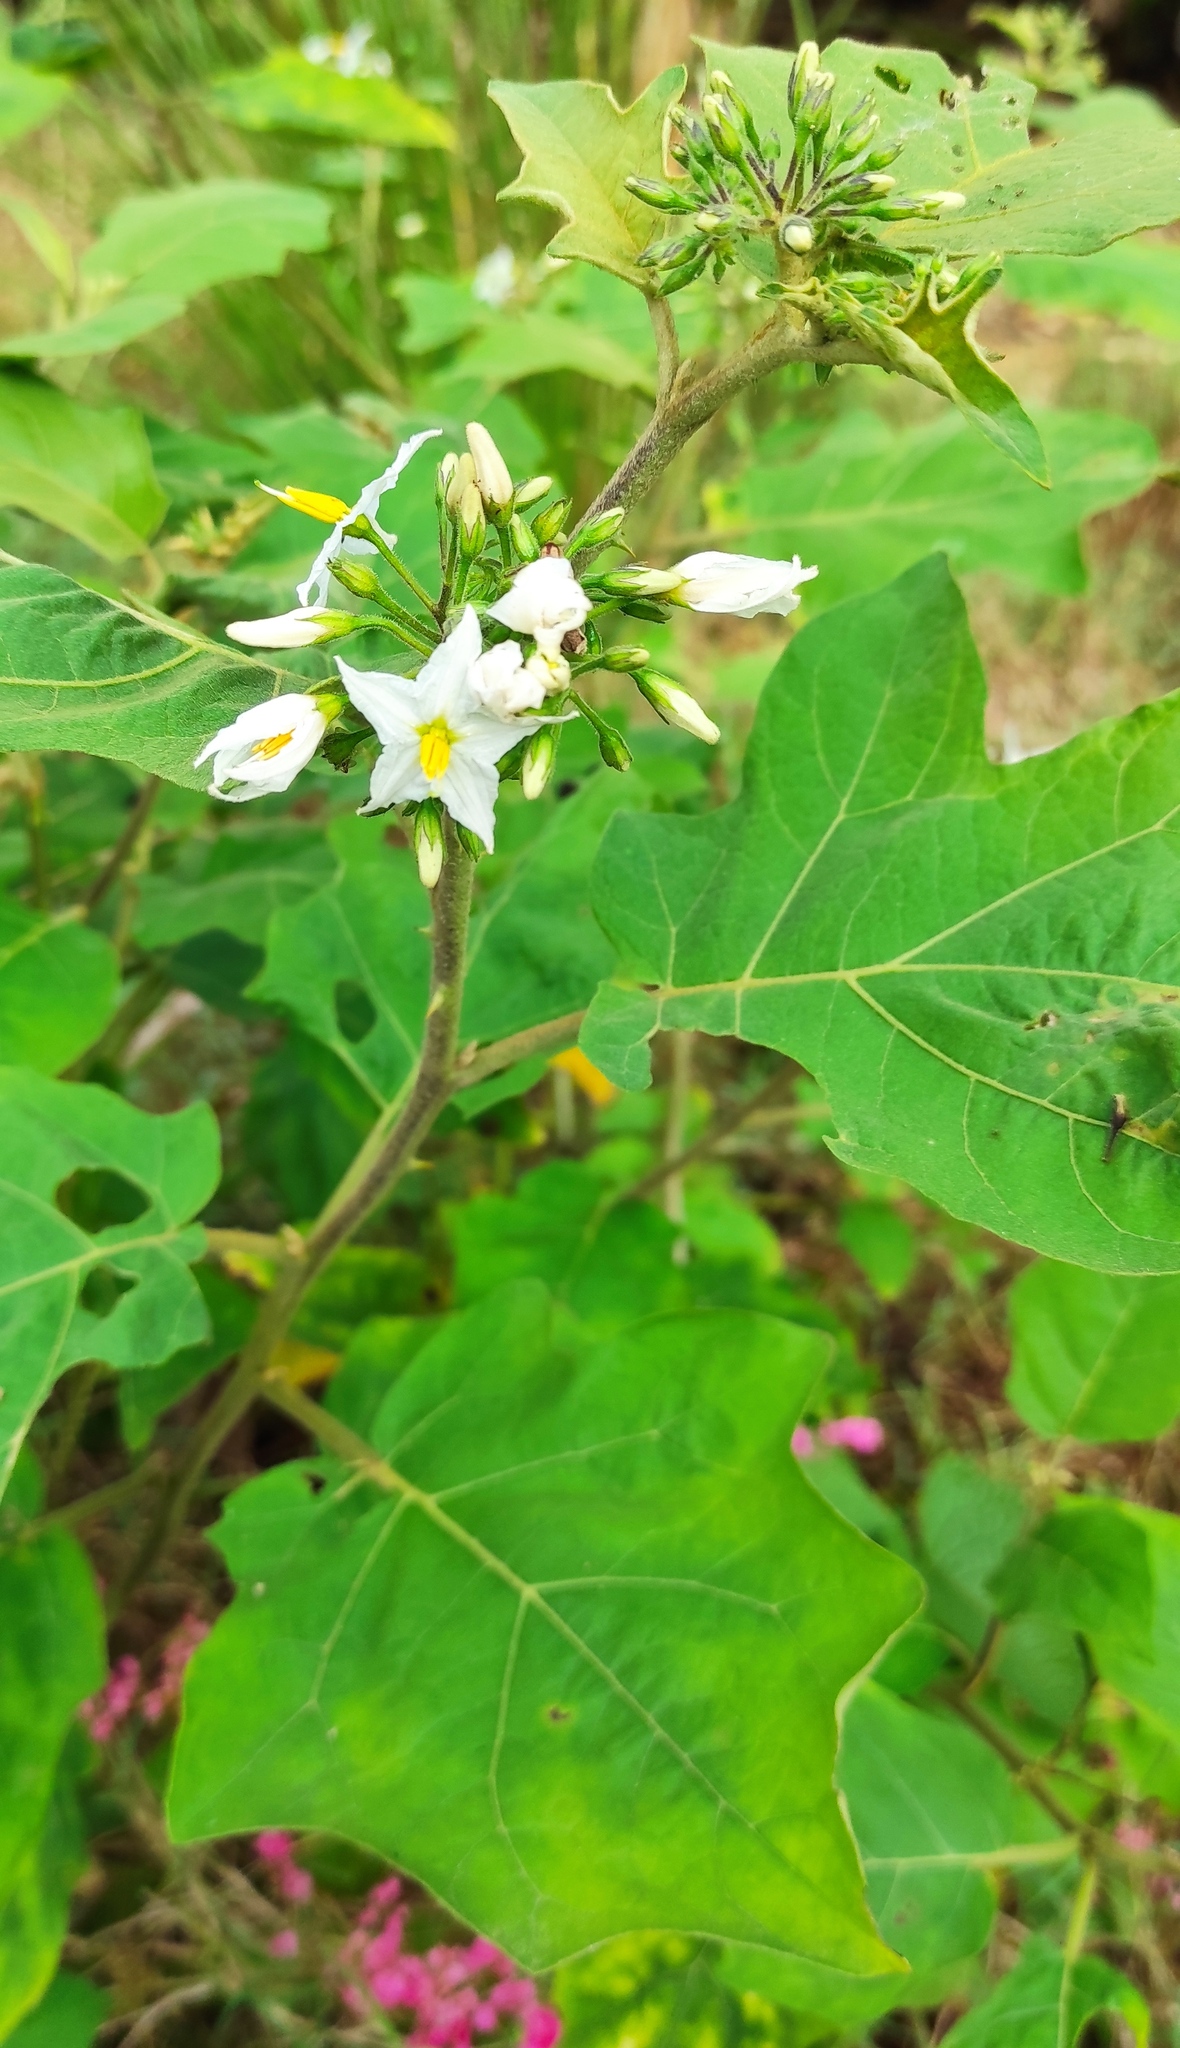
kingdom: Plantae
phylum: Tracheophyta
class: Magnoliopsida
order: Solanales
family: Solanaceae
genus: Solanum
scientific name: Solanum torvum
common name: Turkey berry
